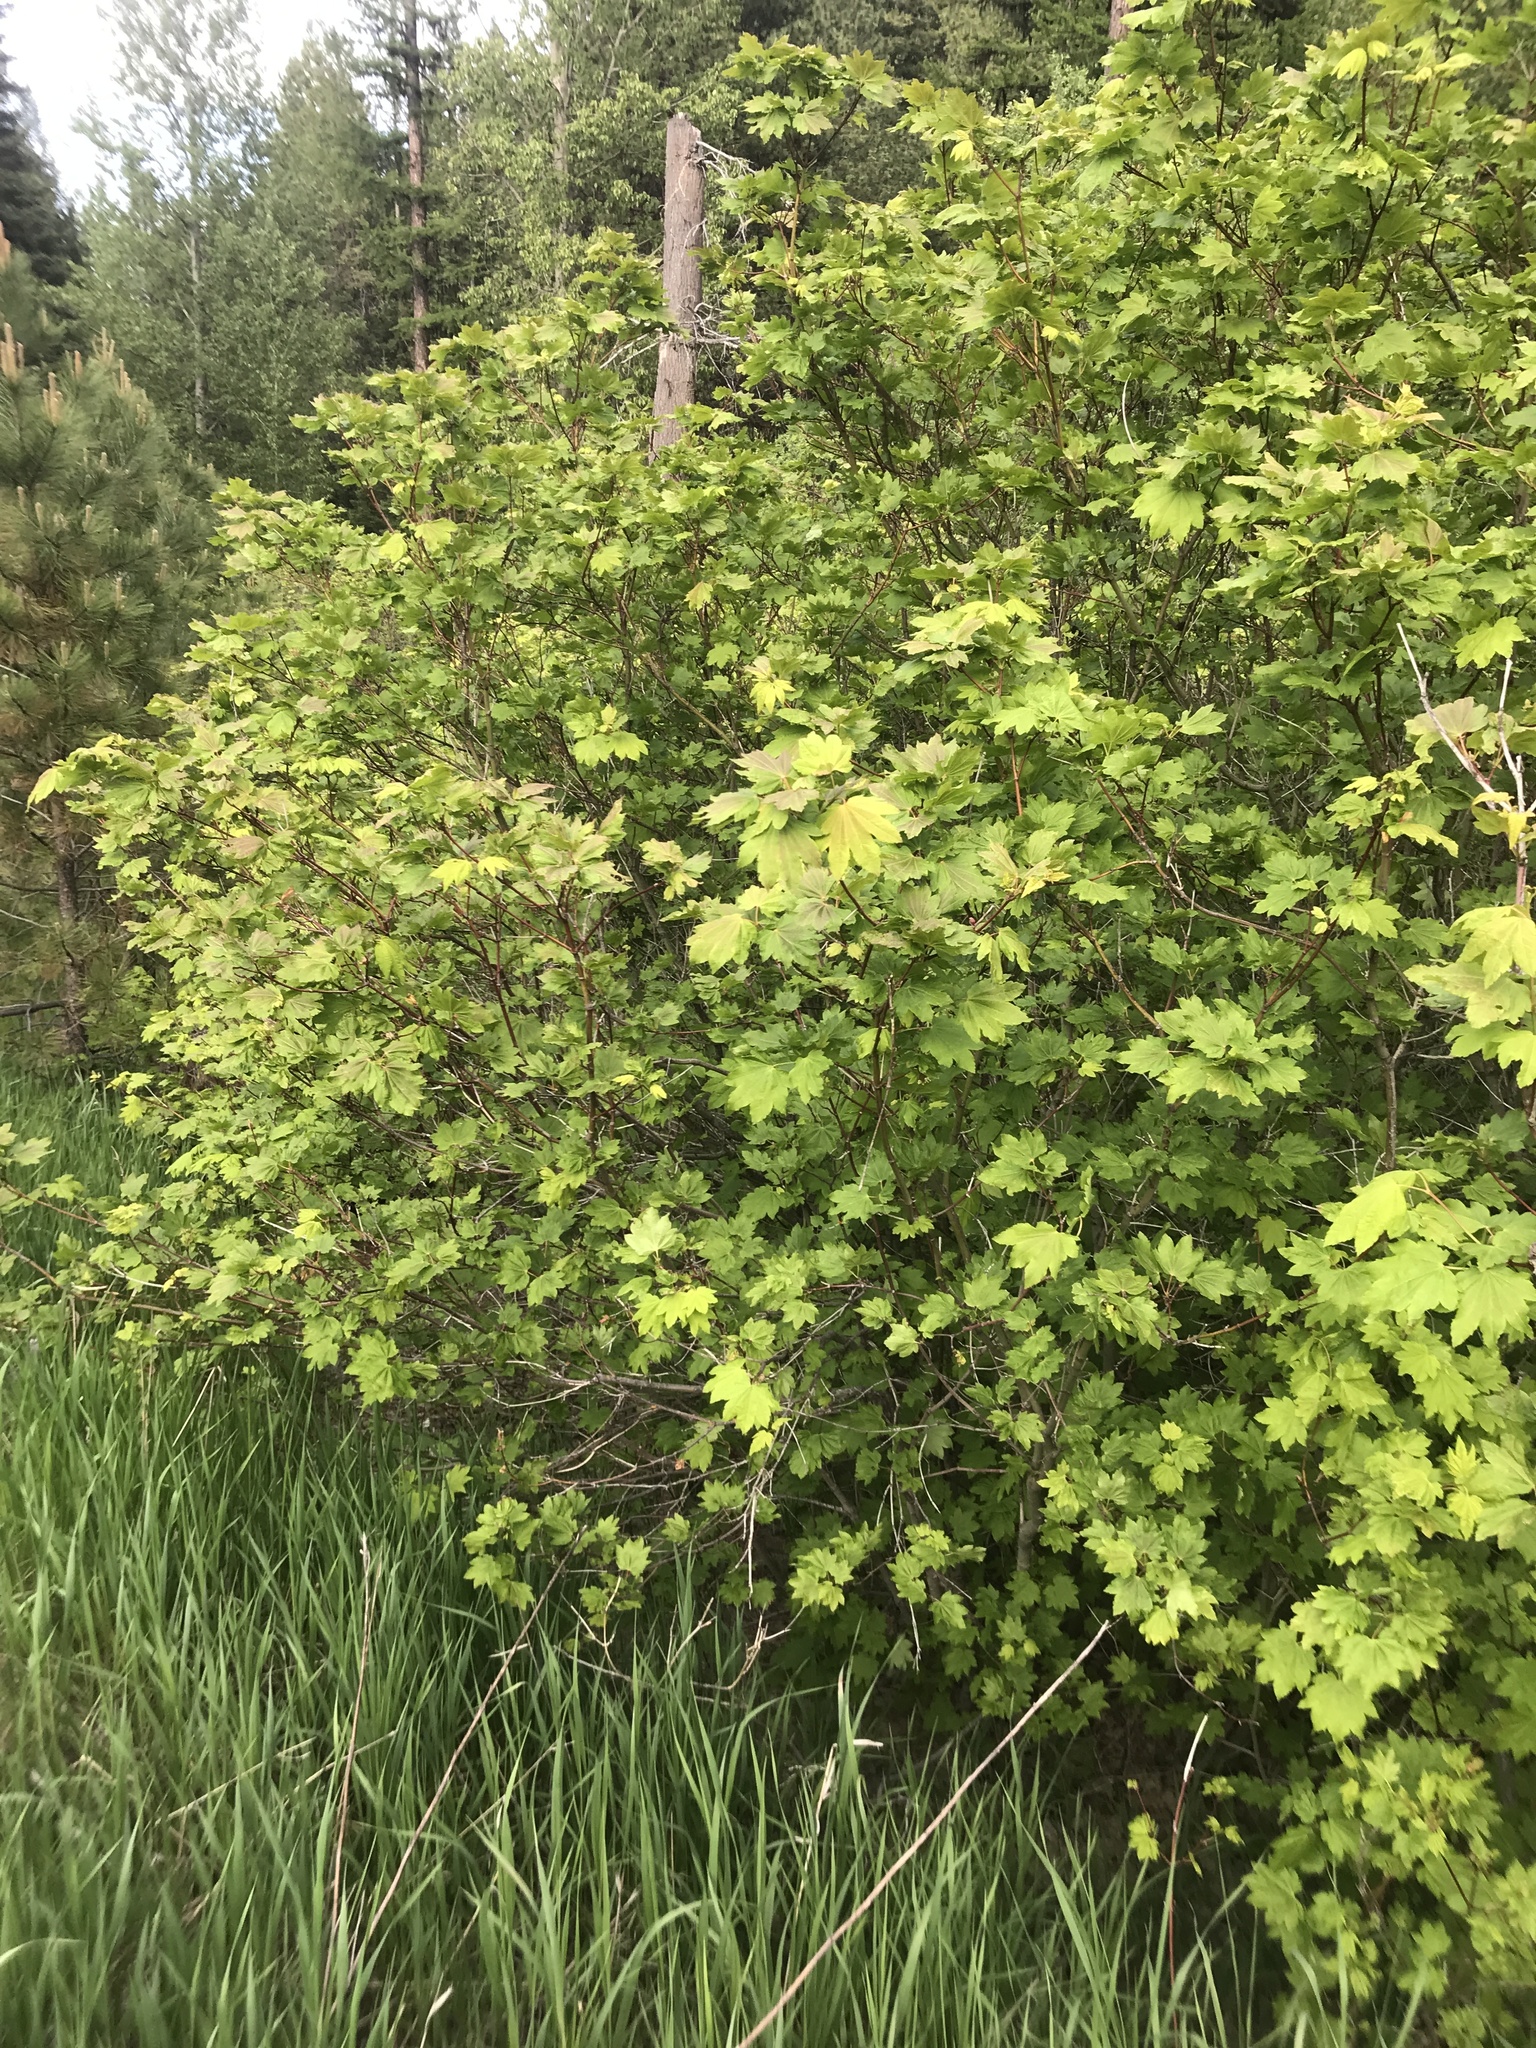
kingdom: Plantae
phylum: Tracheophyta
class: Magnoliopsida
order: Sapindales
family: Sapindaceae
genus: Acer
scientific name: Acer circinatum
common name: Vine maple
